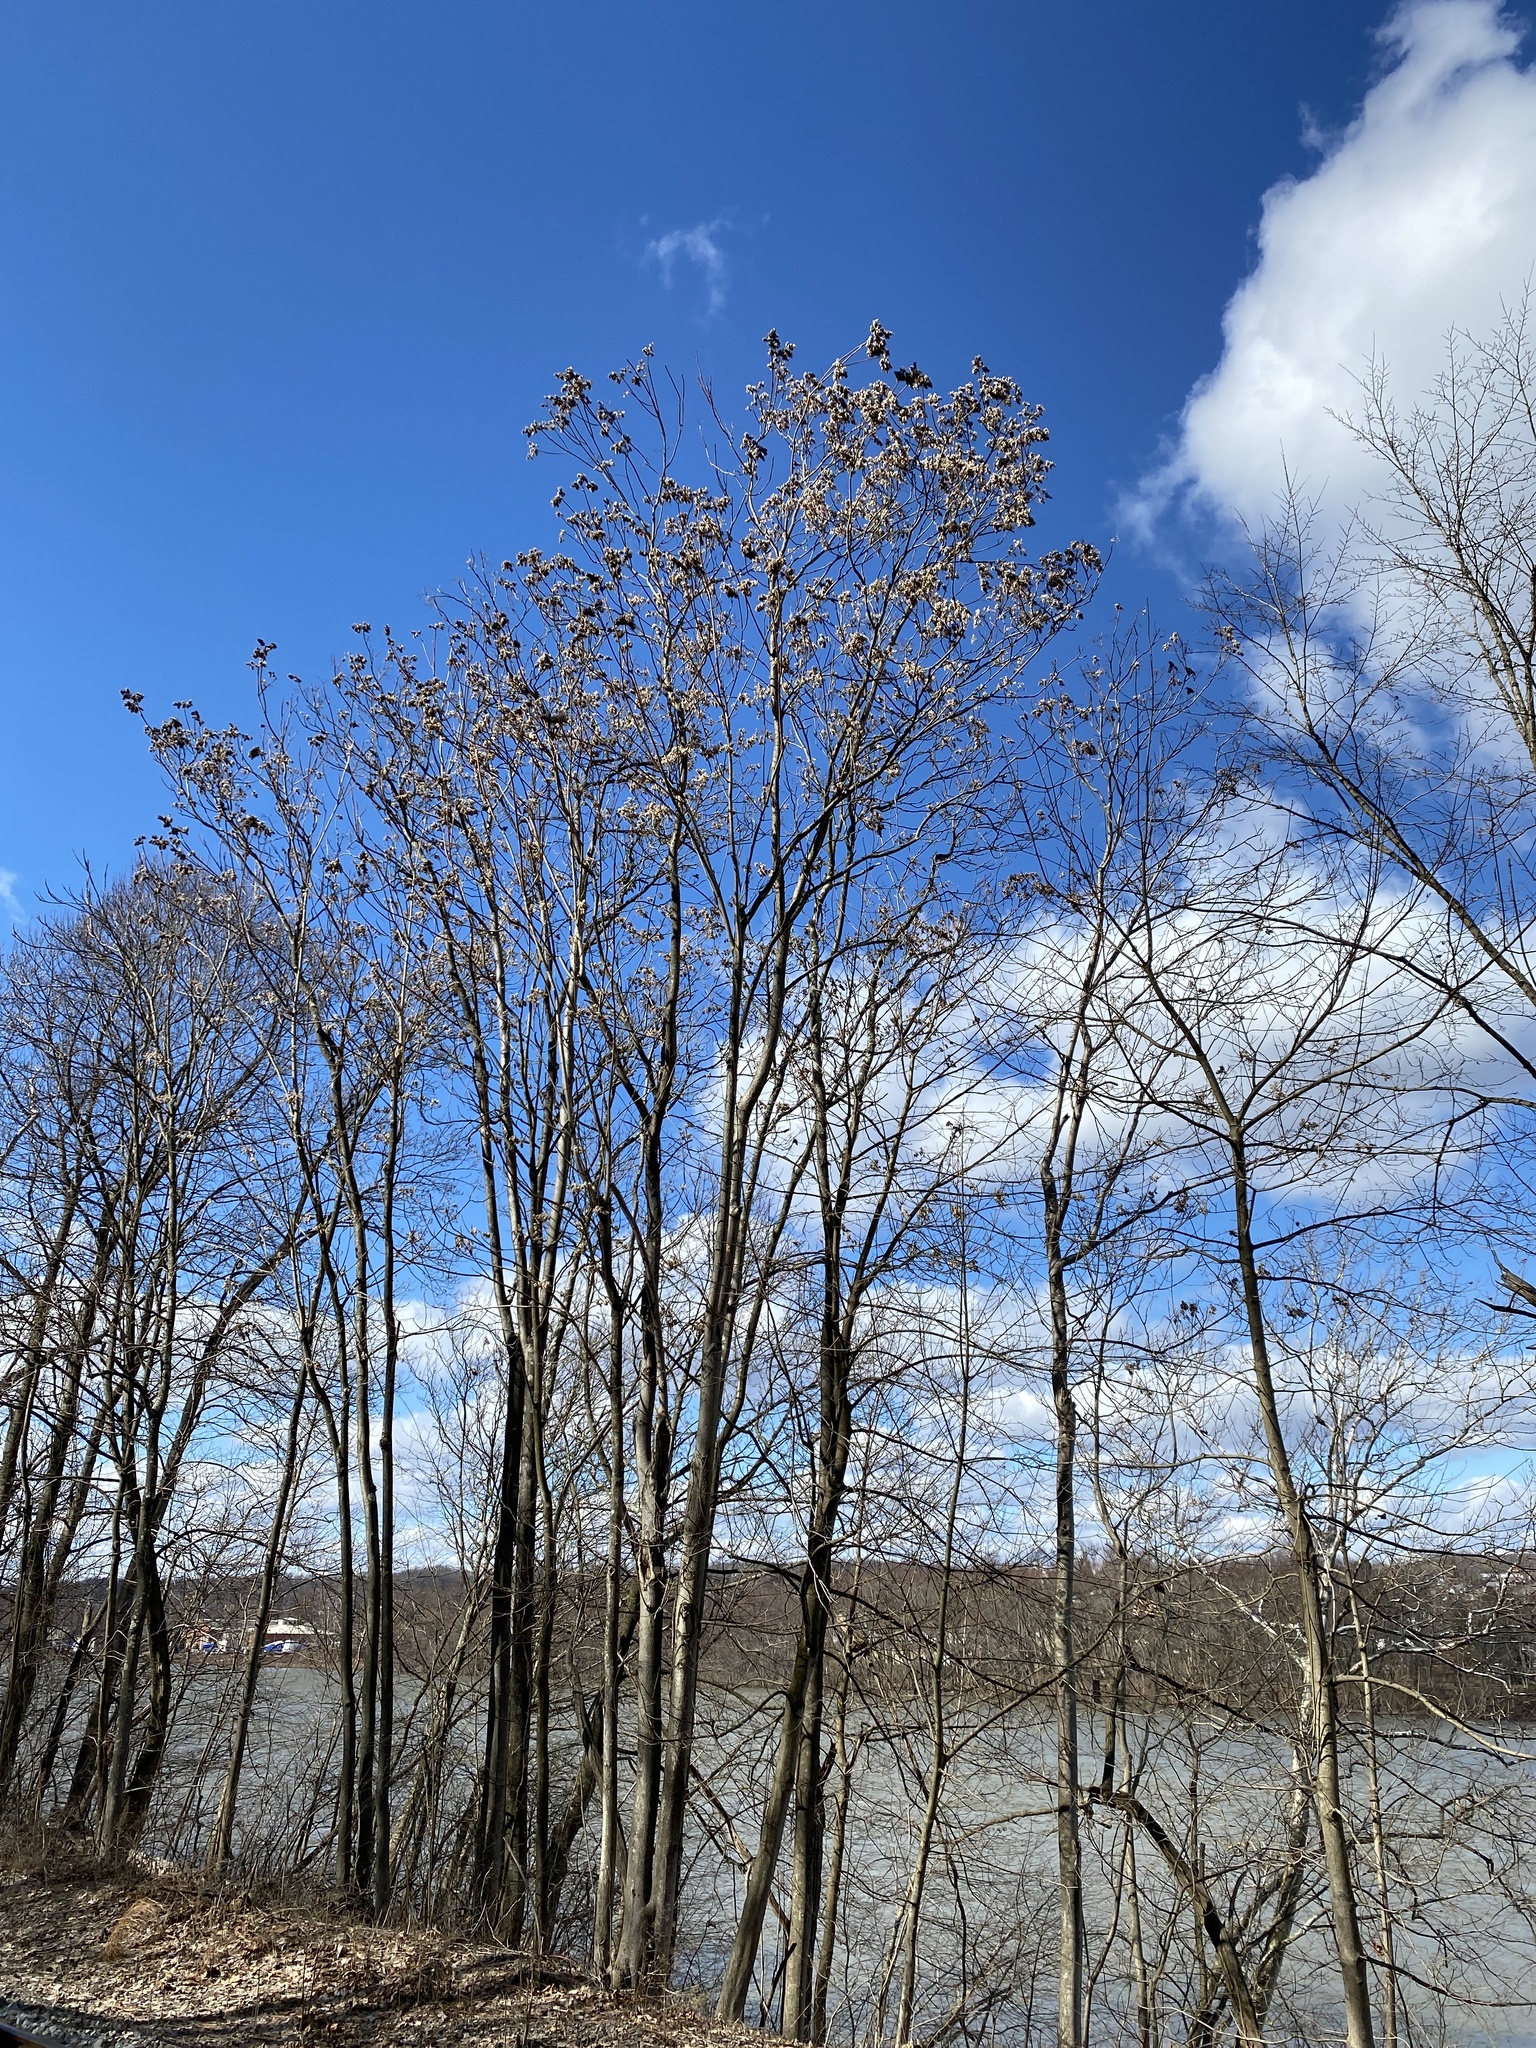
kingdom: Plantae
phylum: Tracheophyta
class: Magnoliopsida
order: Sapindales
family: Simaroubaceae
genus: Ailanthus
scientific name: Ailanthus altissima
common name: Tree-of-heaven
